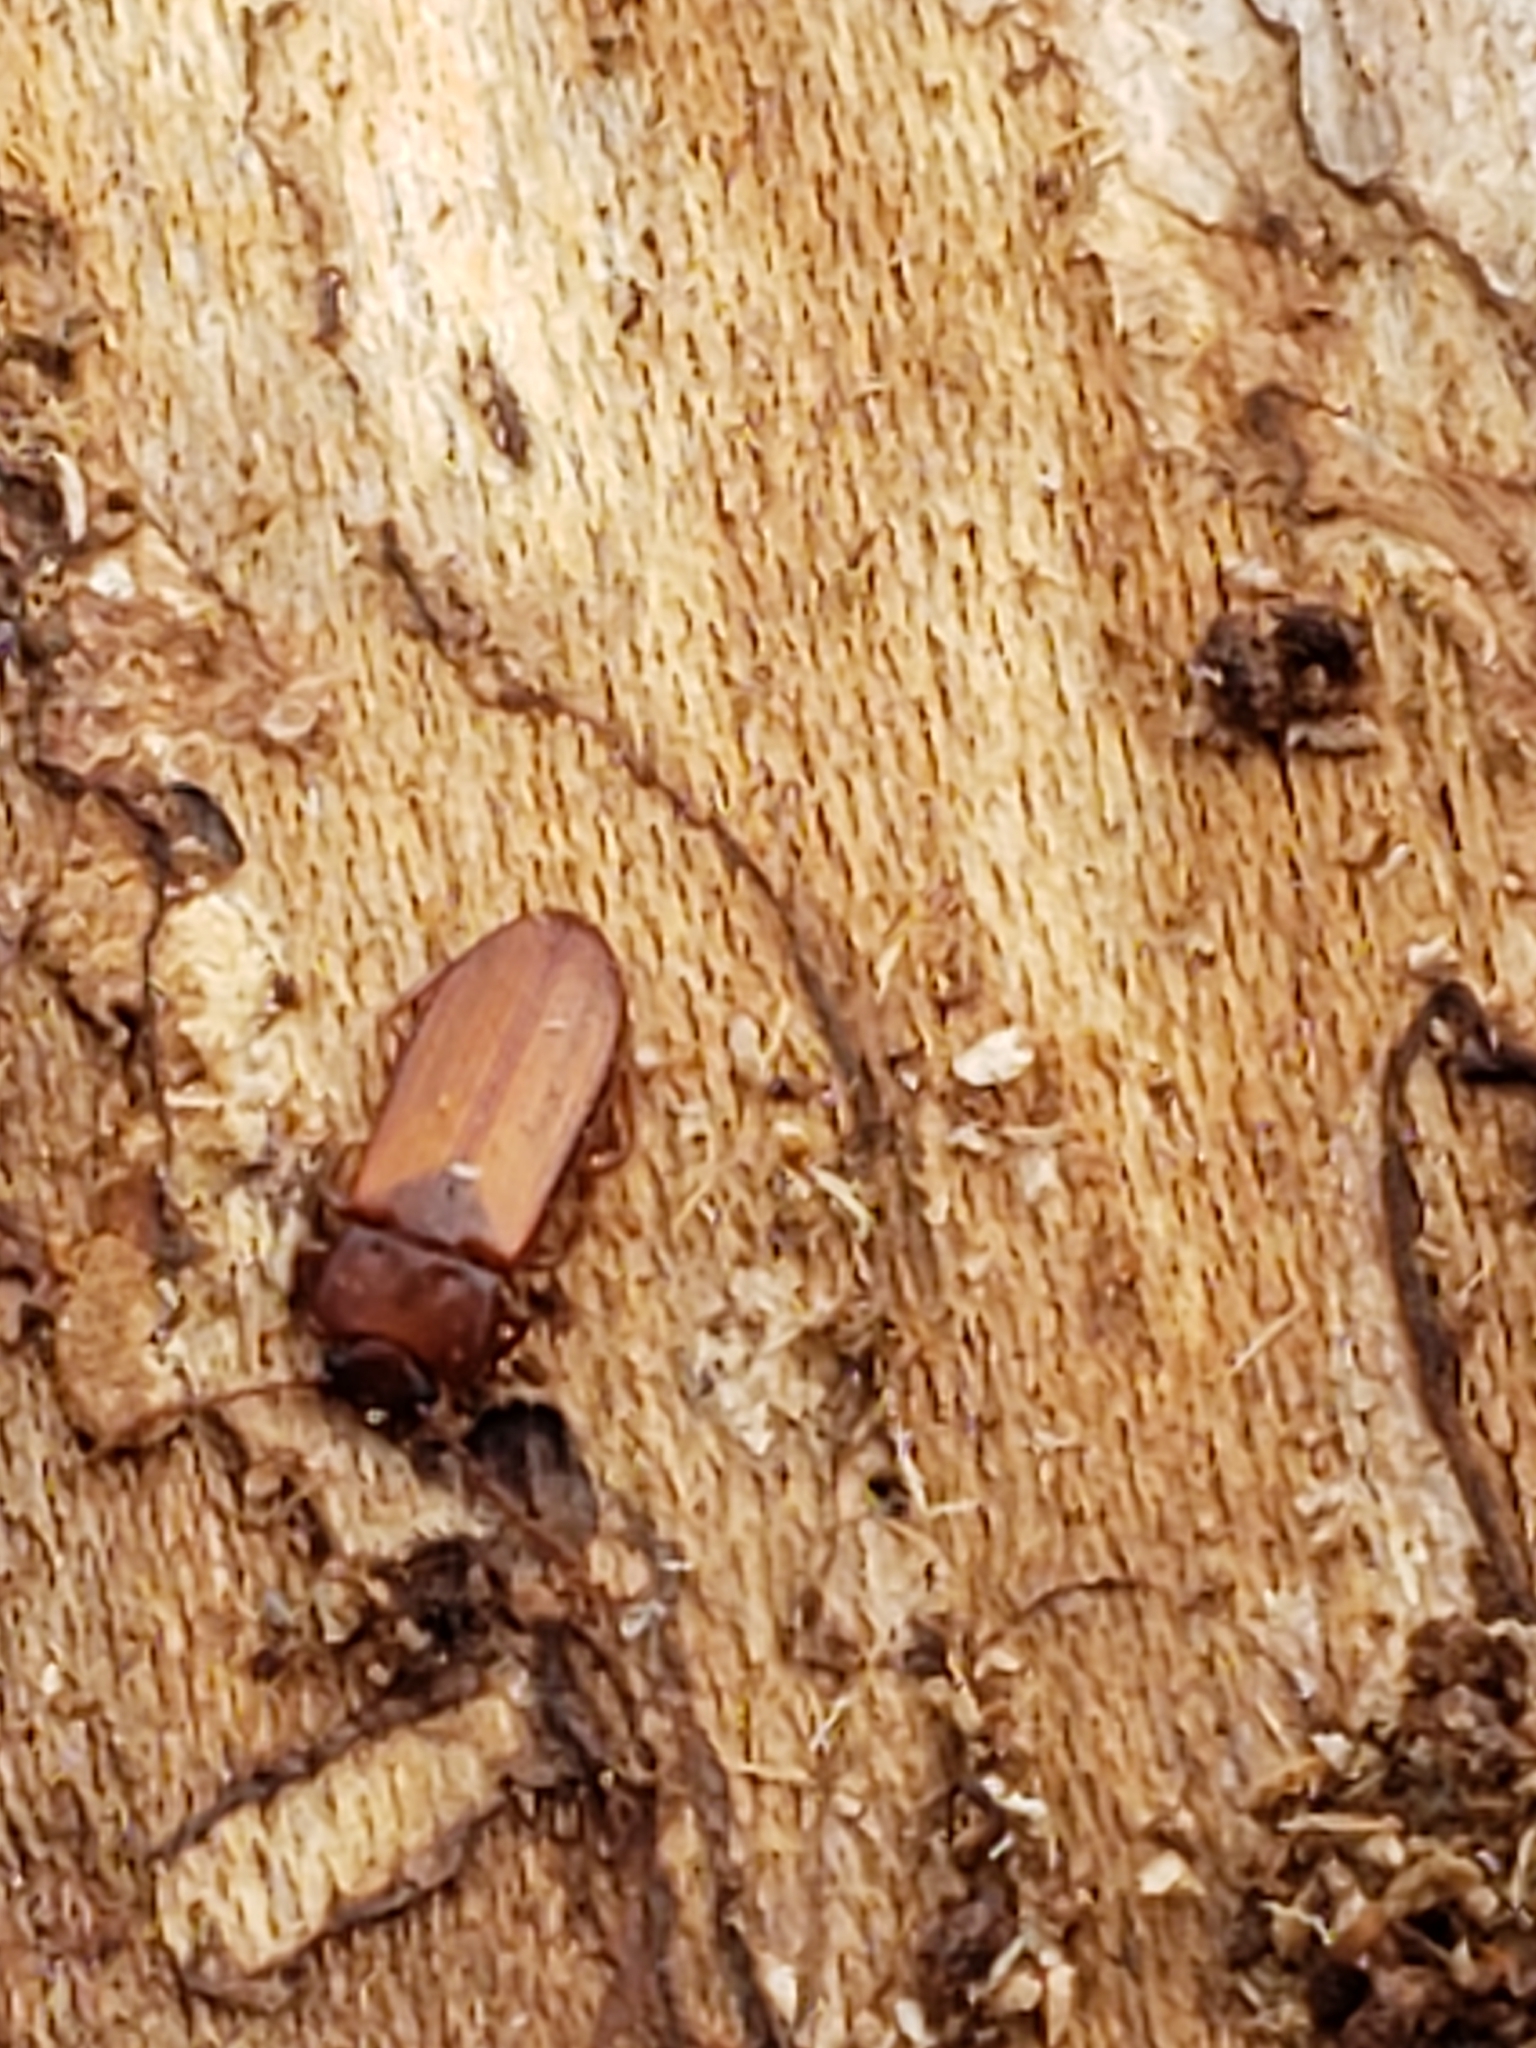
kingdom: Animalia
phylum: Arthropoda
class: Insecta
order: Coleoptera
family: Tenebrionidae
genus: Adelina
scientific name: Adelina pallida
